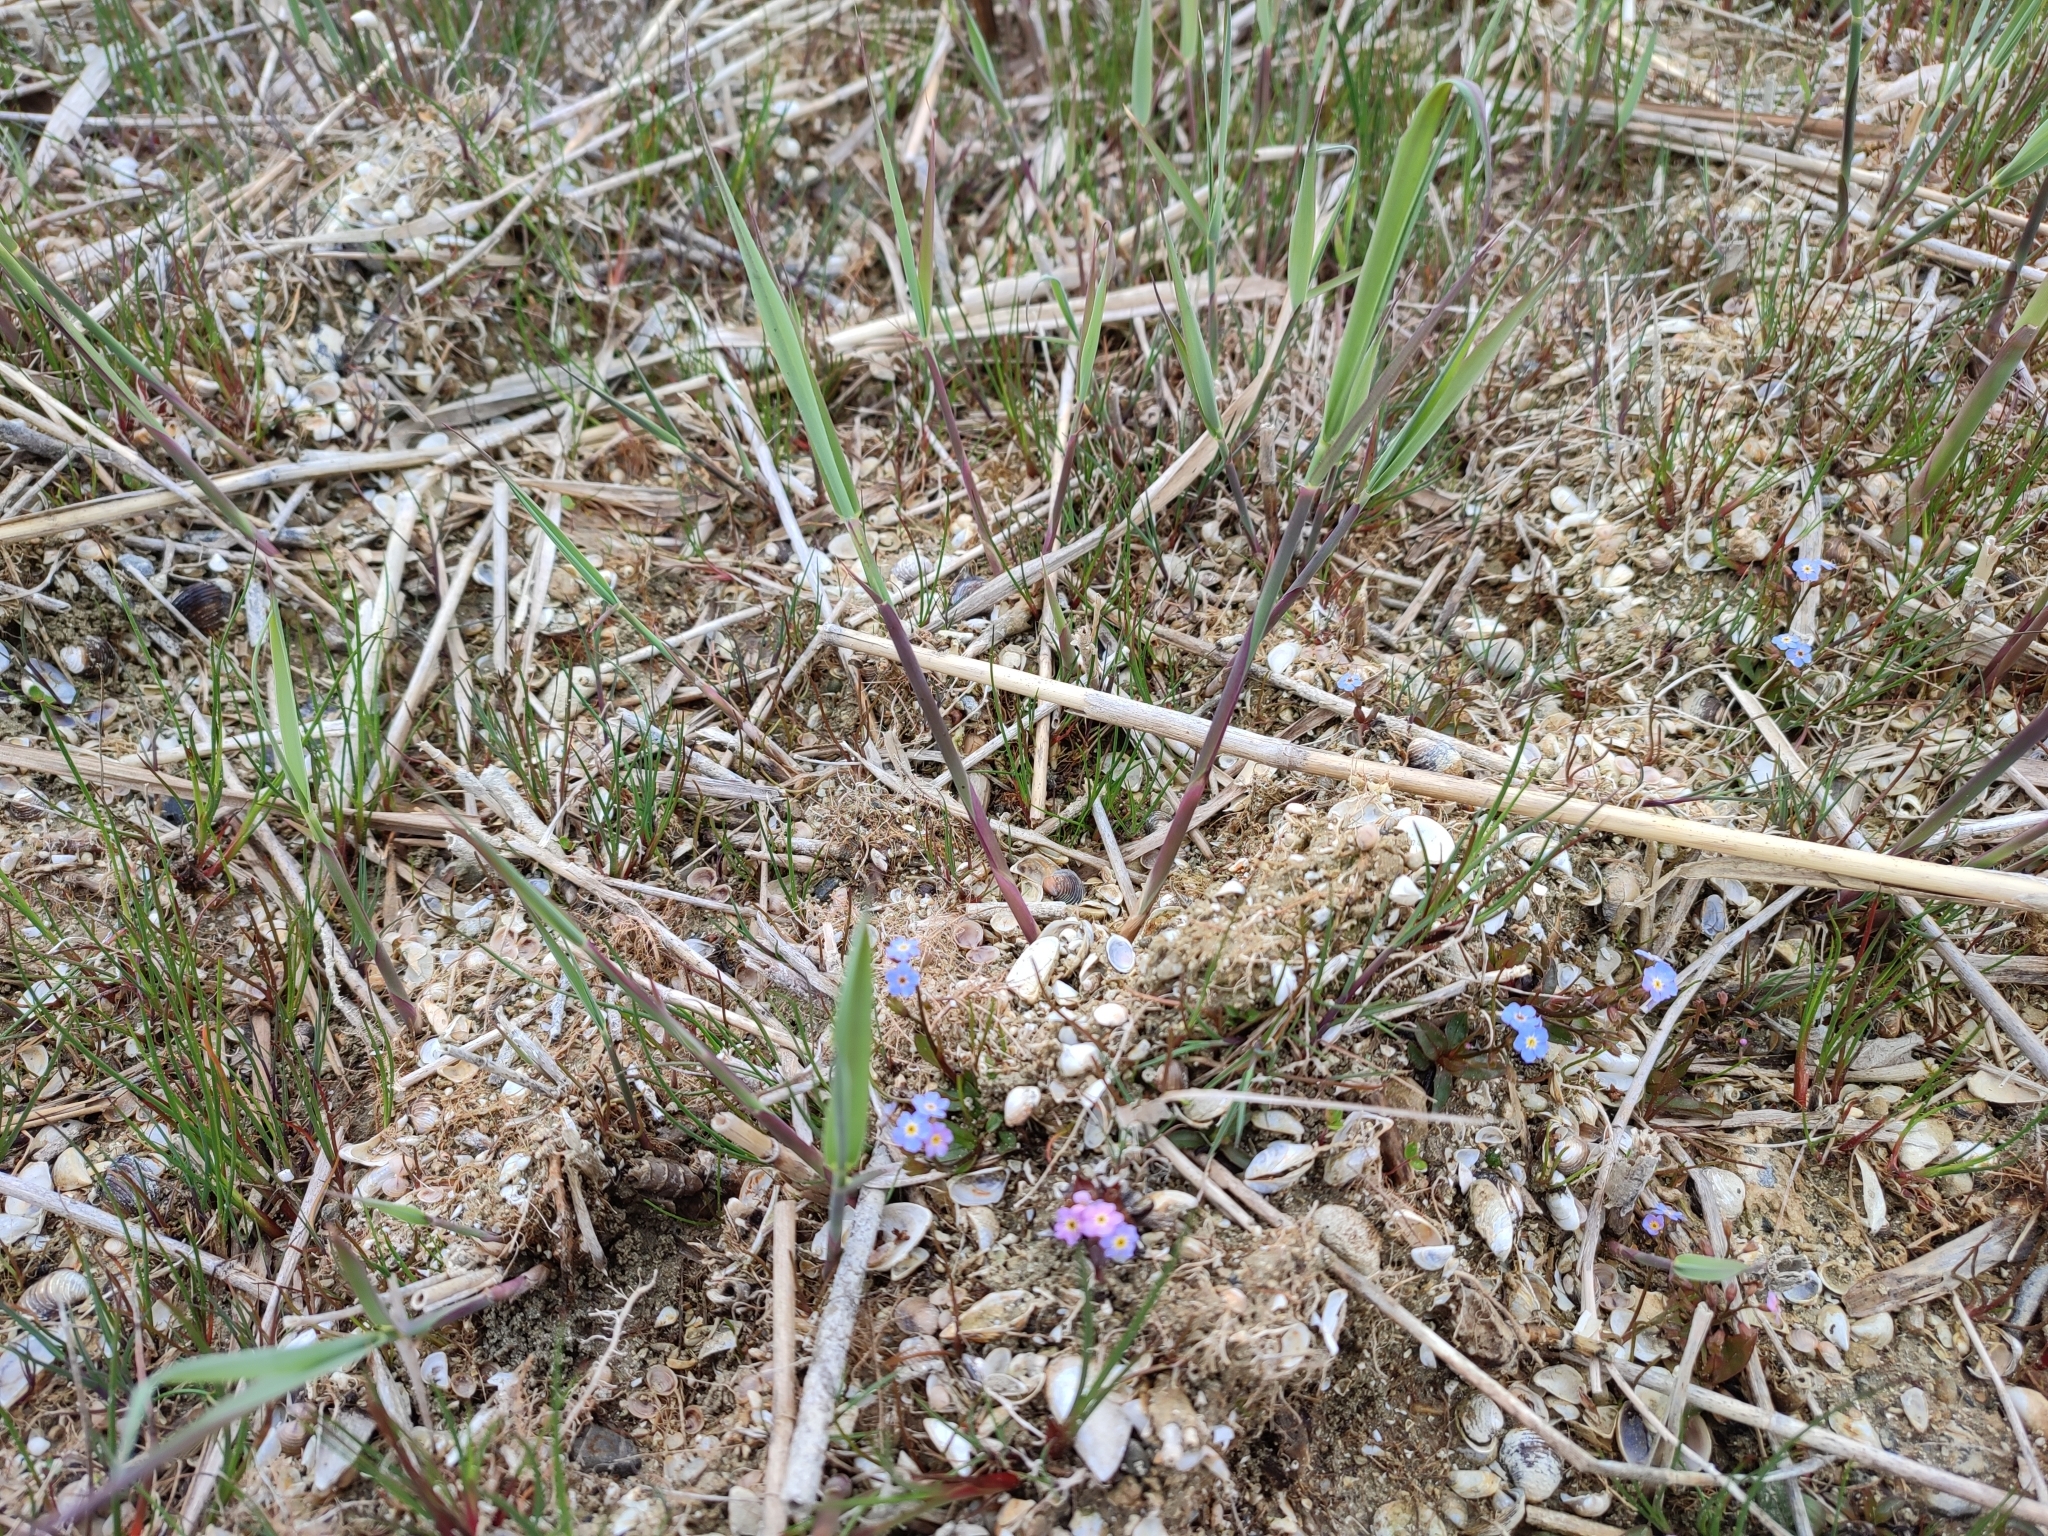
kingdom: Plantae
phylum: Tracheophyta
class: Magnoliopsida
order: Boraginales
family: Boraginaceae
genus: Myosotis
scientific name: Myosotis rehsteineri
